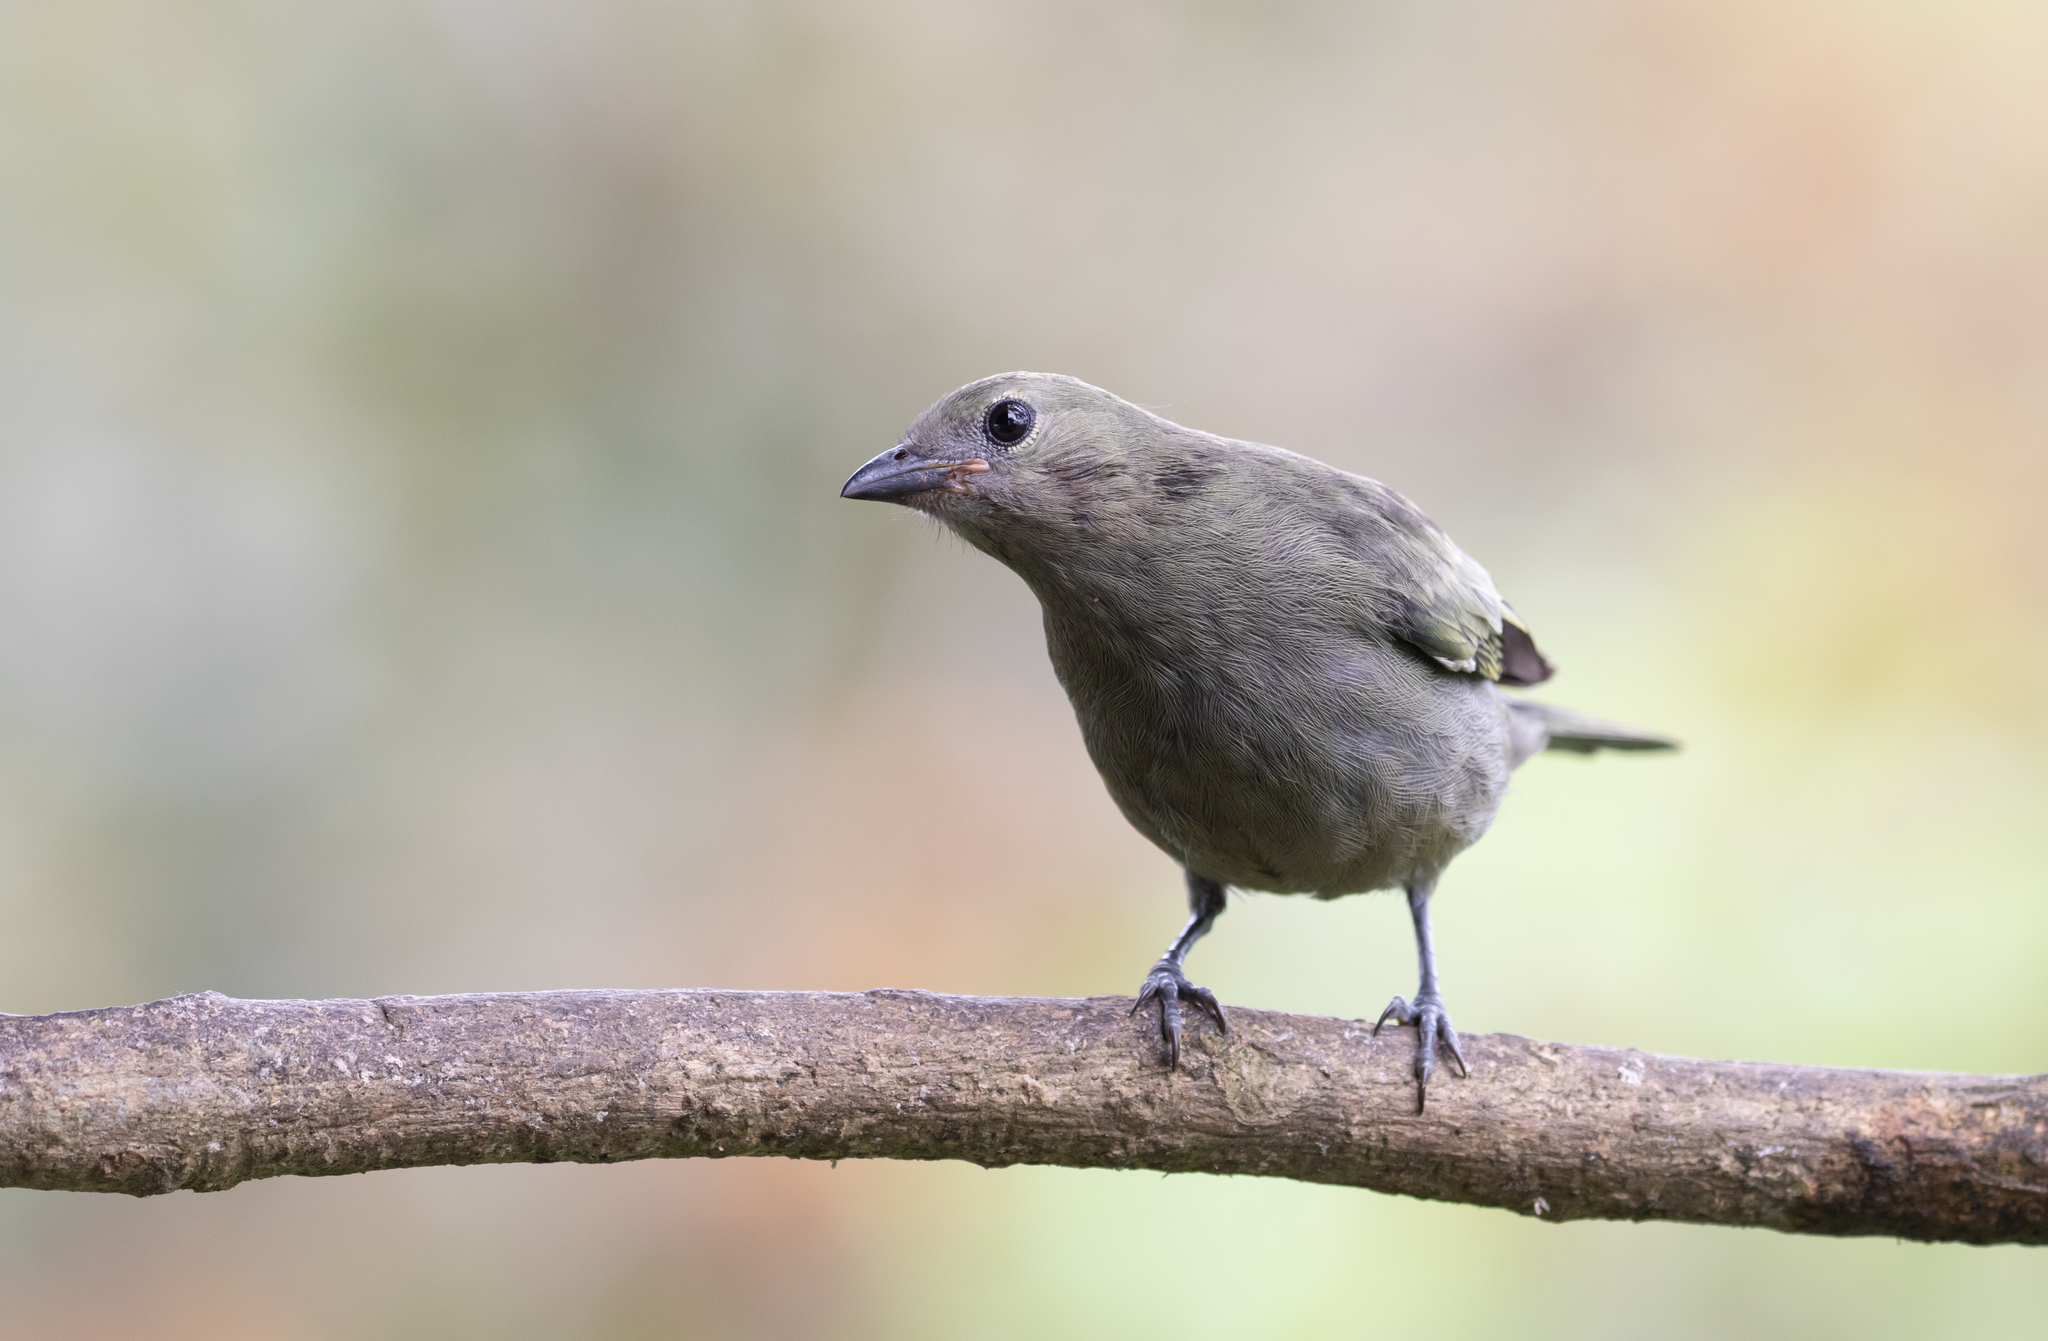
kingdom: Animalia
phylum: Chordata
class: Aves
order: Passeriformes
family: Thraupidae
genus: Thraupis
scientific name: Thraupis palmarum
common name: Palm tanager
